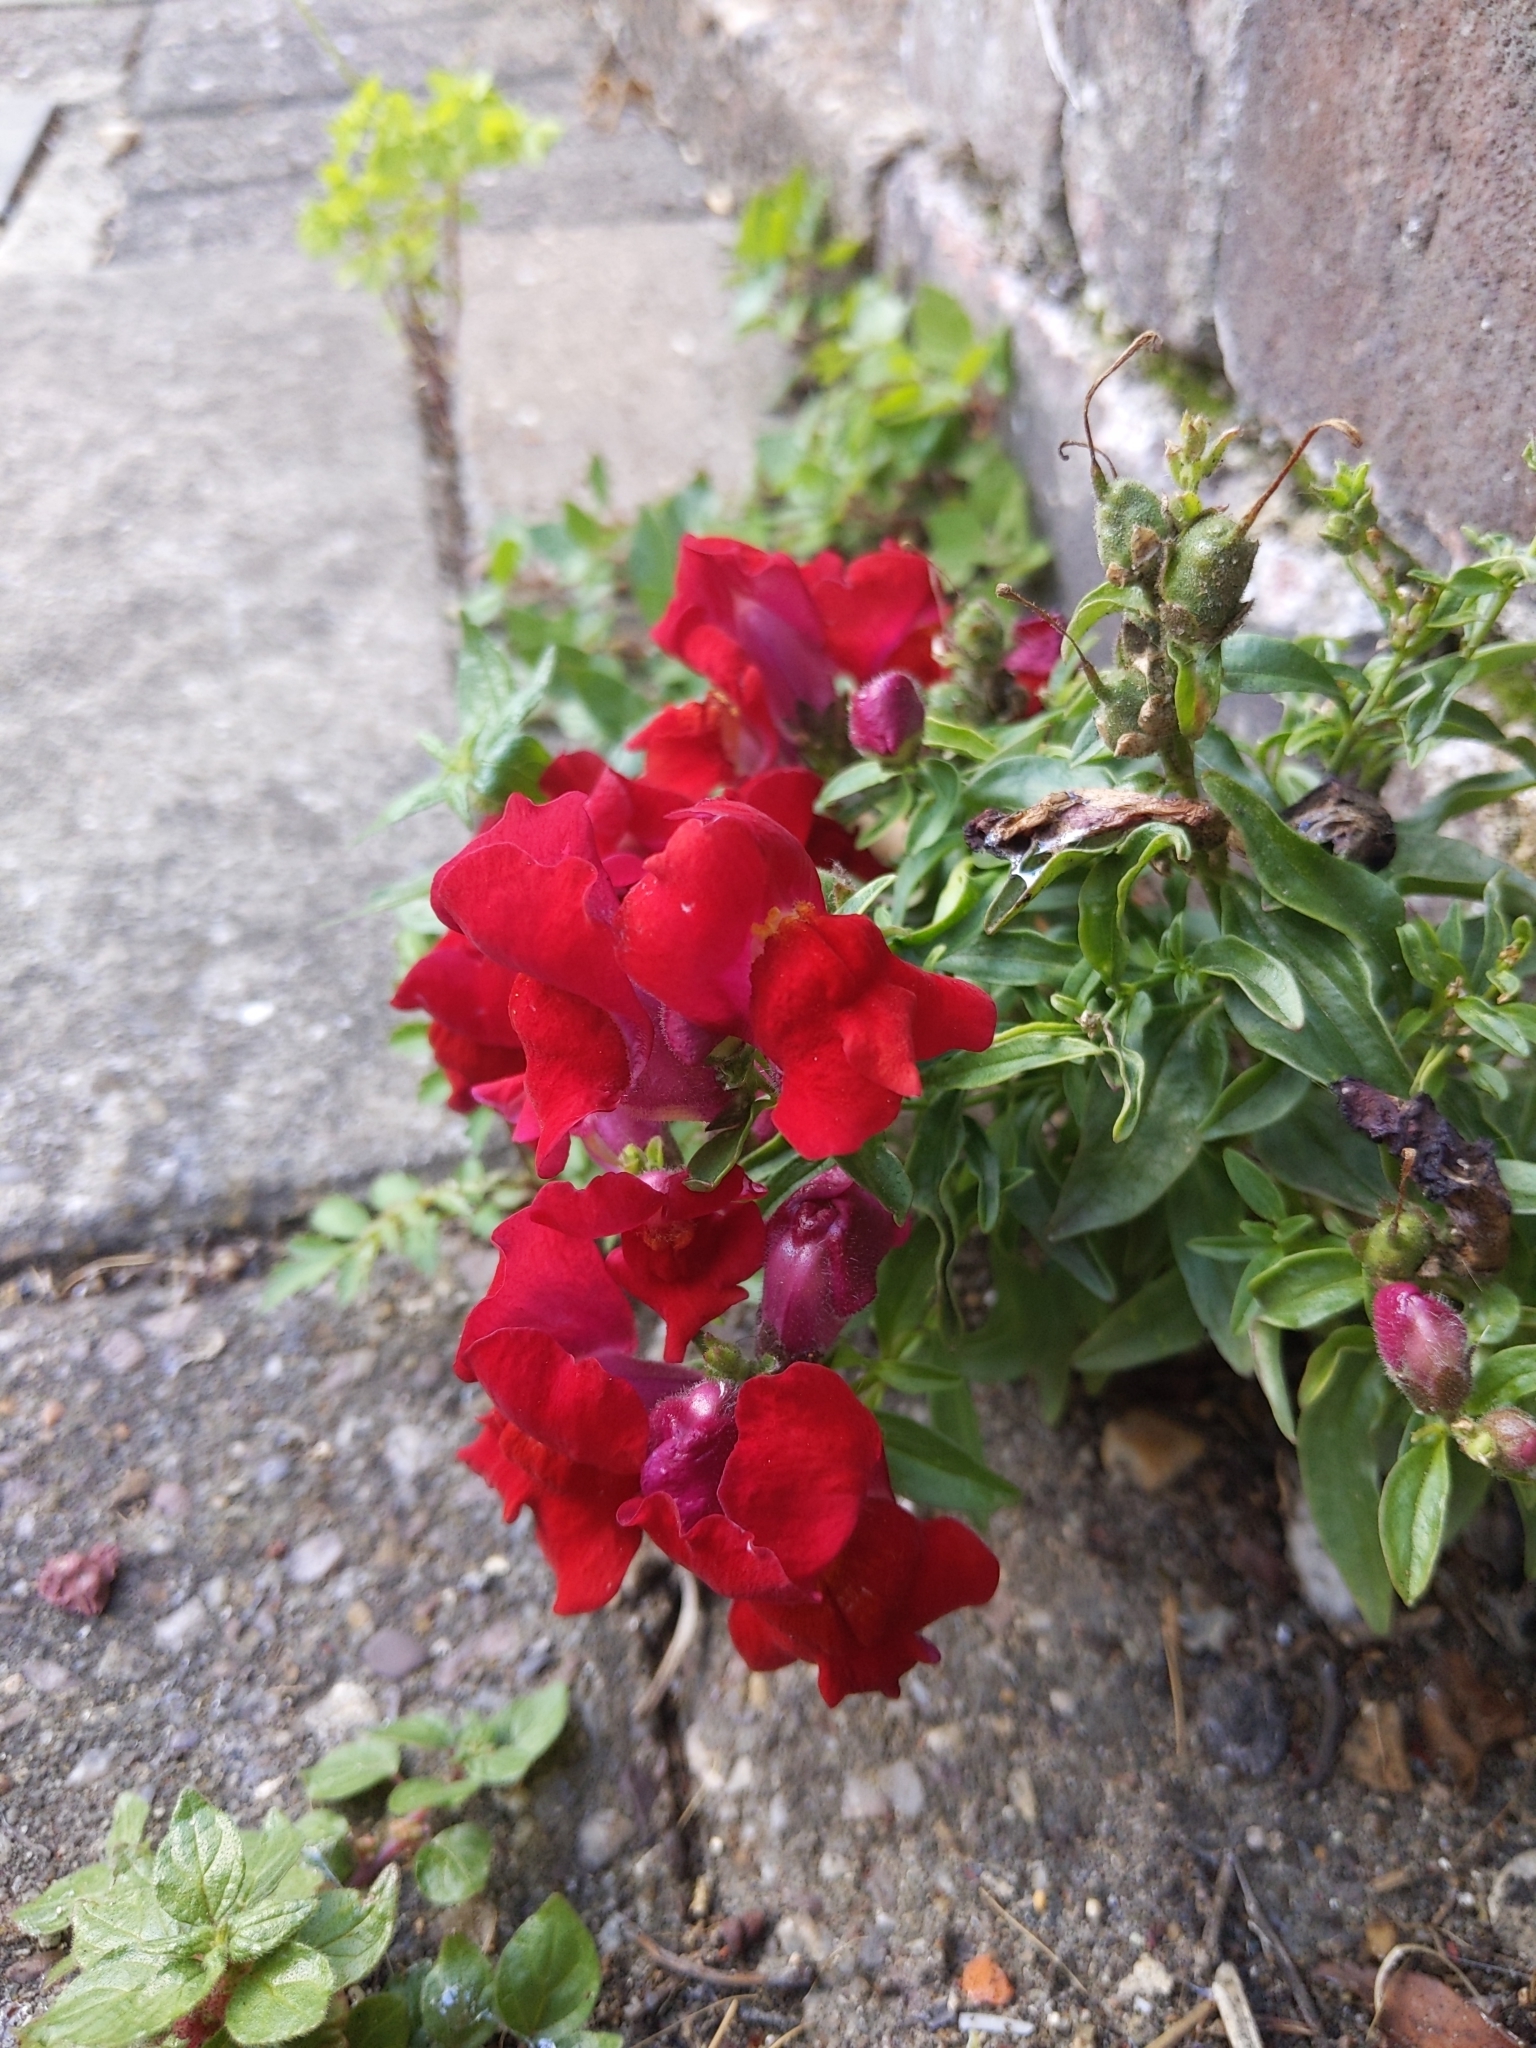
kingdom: Plantae
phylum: Tracheophyta
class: Magnoliopsida
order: Lamiales
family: Plantaginaceae
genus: Antirrhinum
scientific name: Antirrhinum majus
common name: Snapdragon
